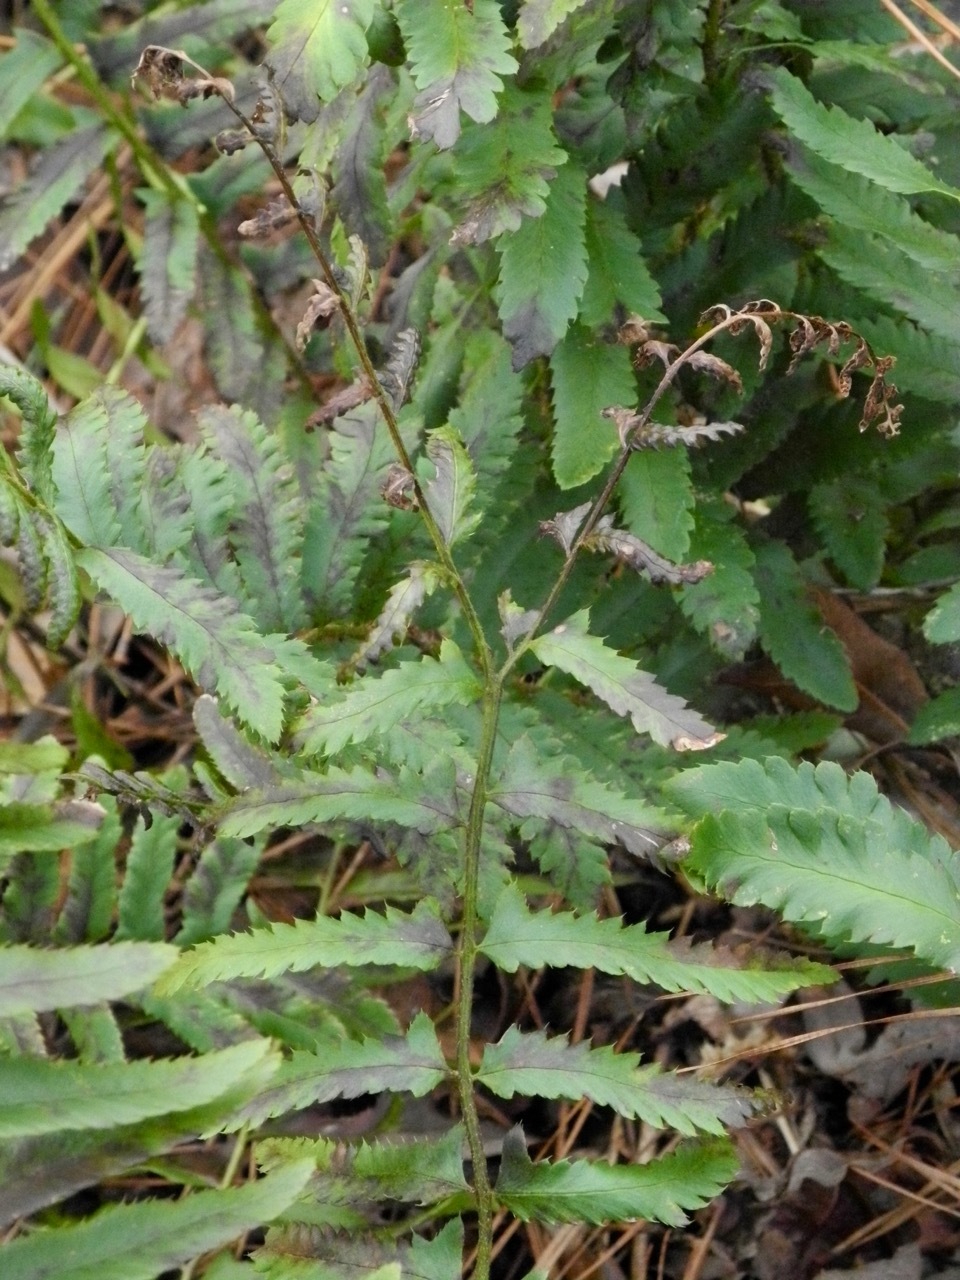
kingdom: Plantae
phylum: Tracheophyta
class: Polypodiopsida
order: Polypodiales
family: Dryopteridaceae
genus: Polystichum
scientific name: Polystichum acrostichoides
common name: Christmas fern
